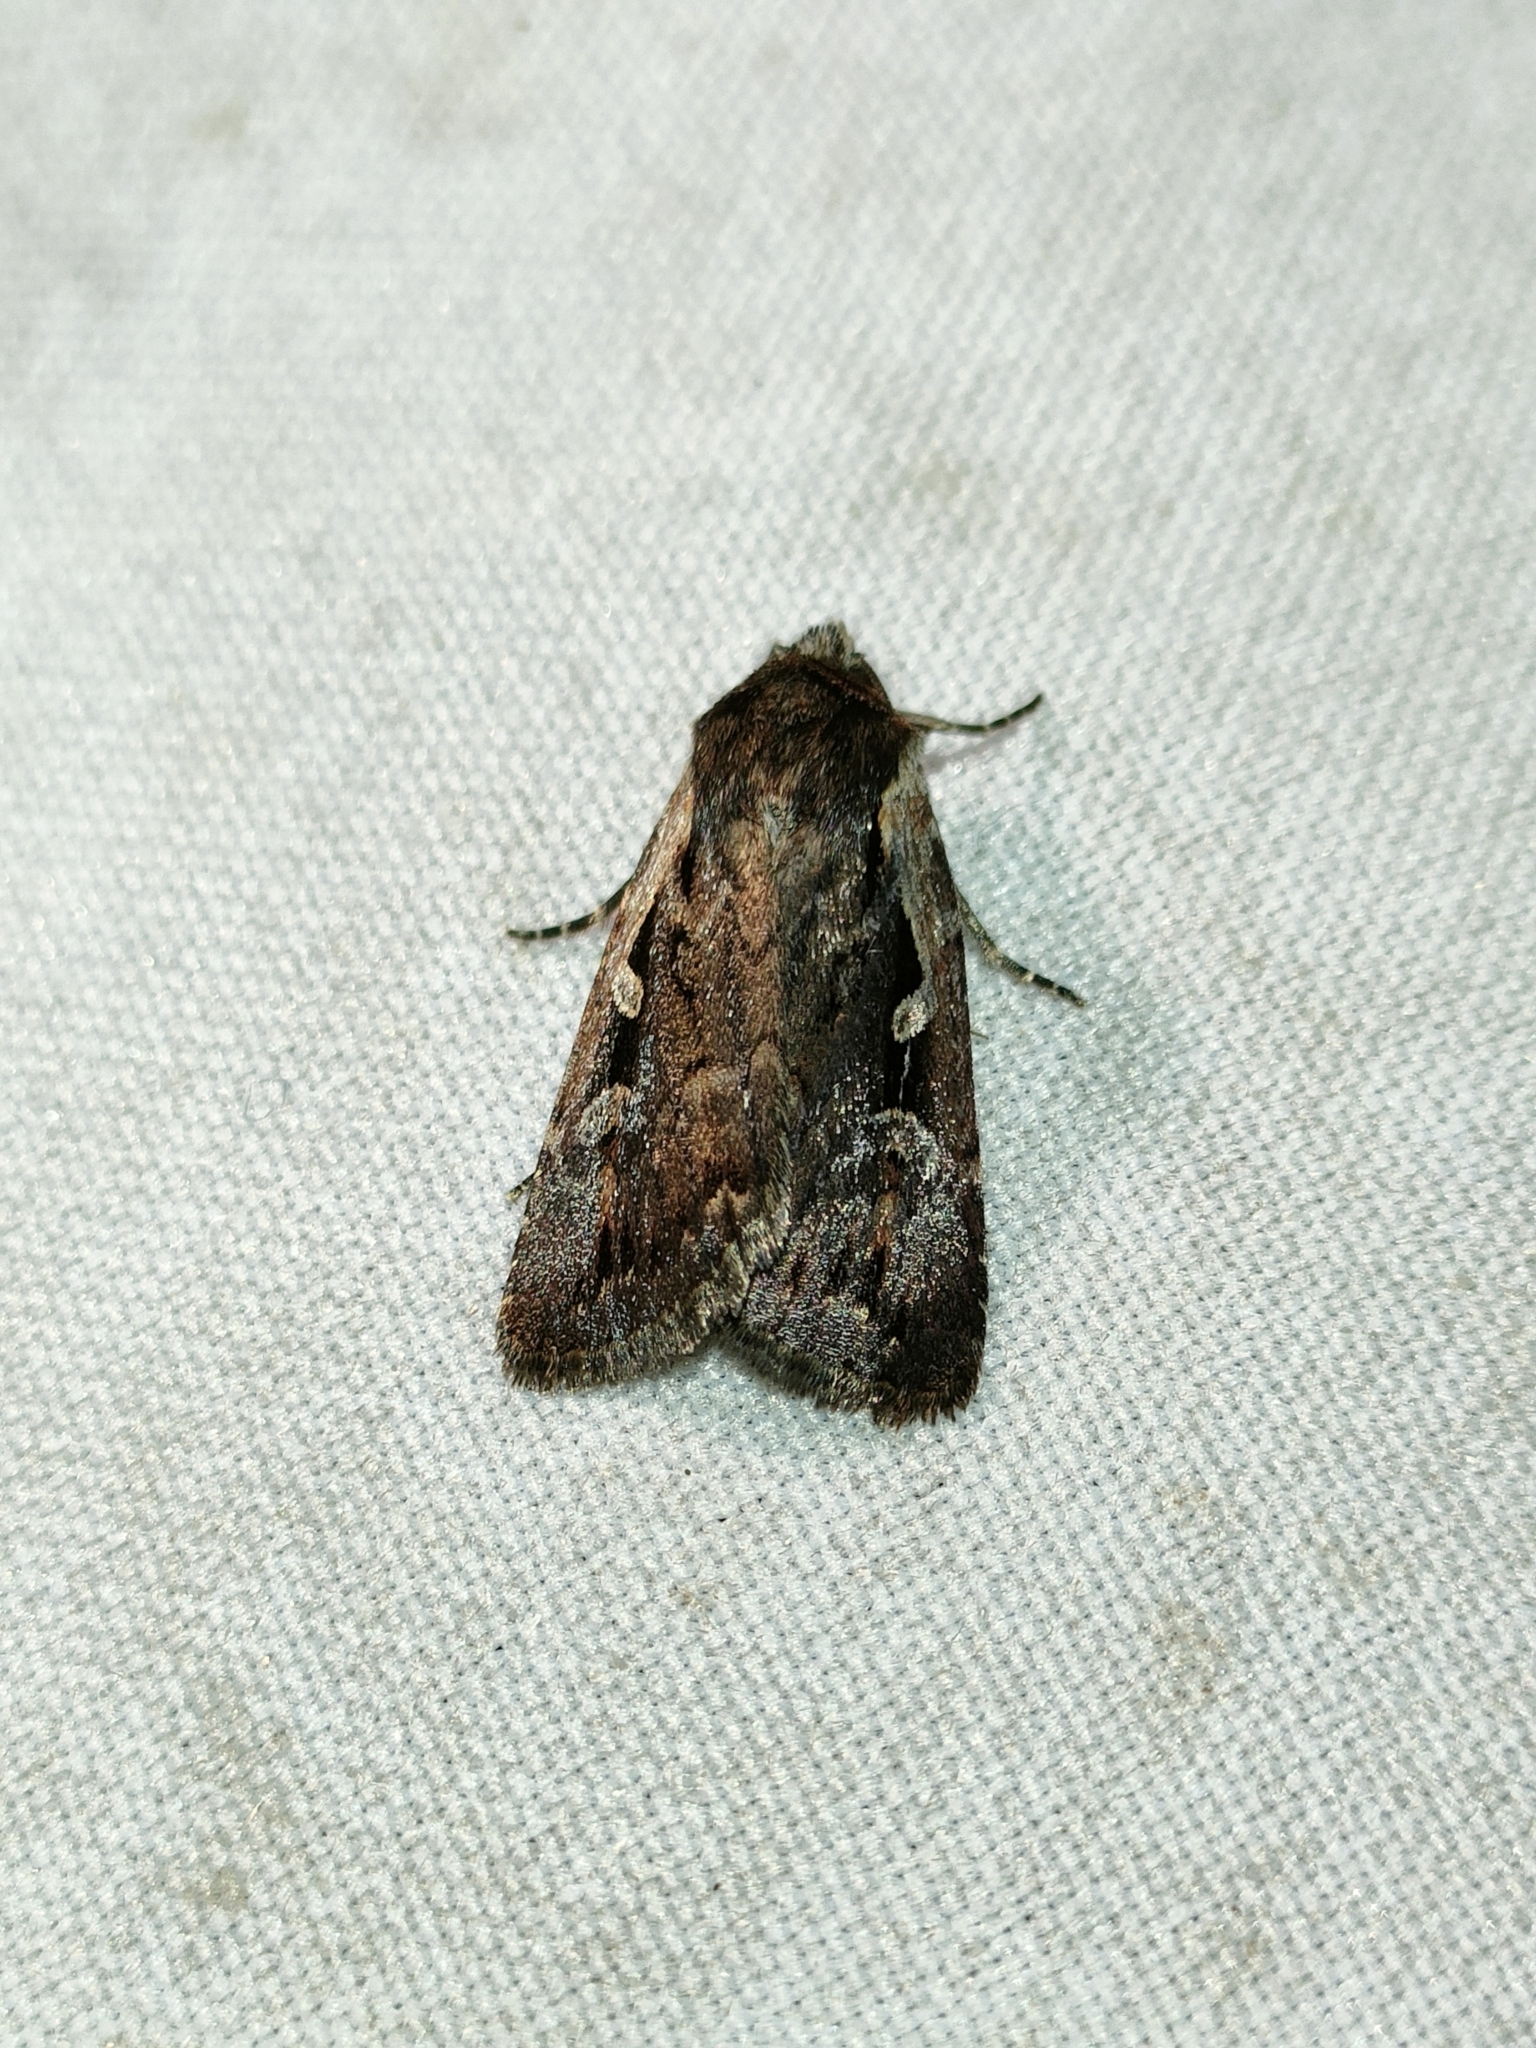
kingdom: Animalia
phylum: Arthropoda
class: Insecta
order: Lepidoptera
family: Noctuidae
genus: Xestia
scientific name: Xestia agathina
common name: Heath rustic
